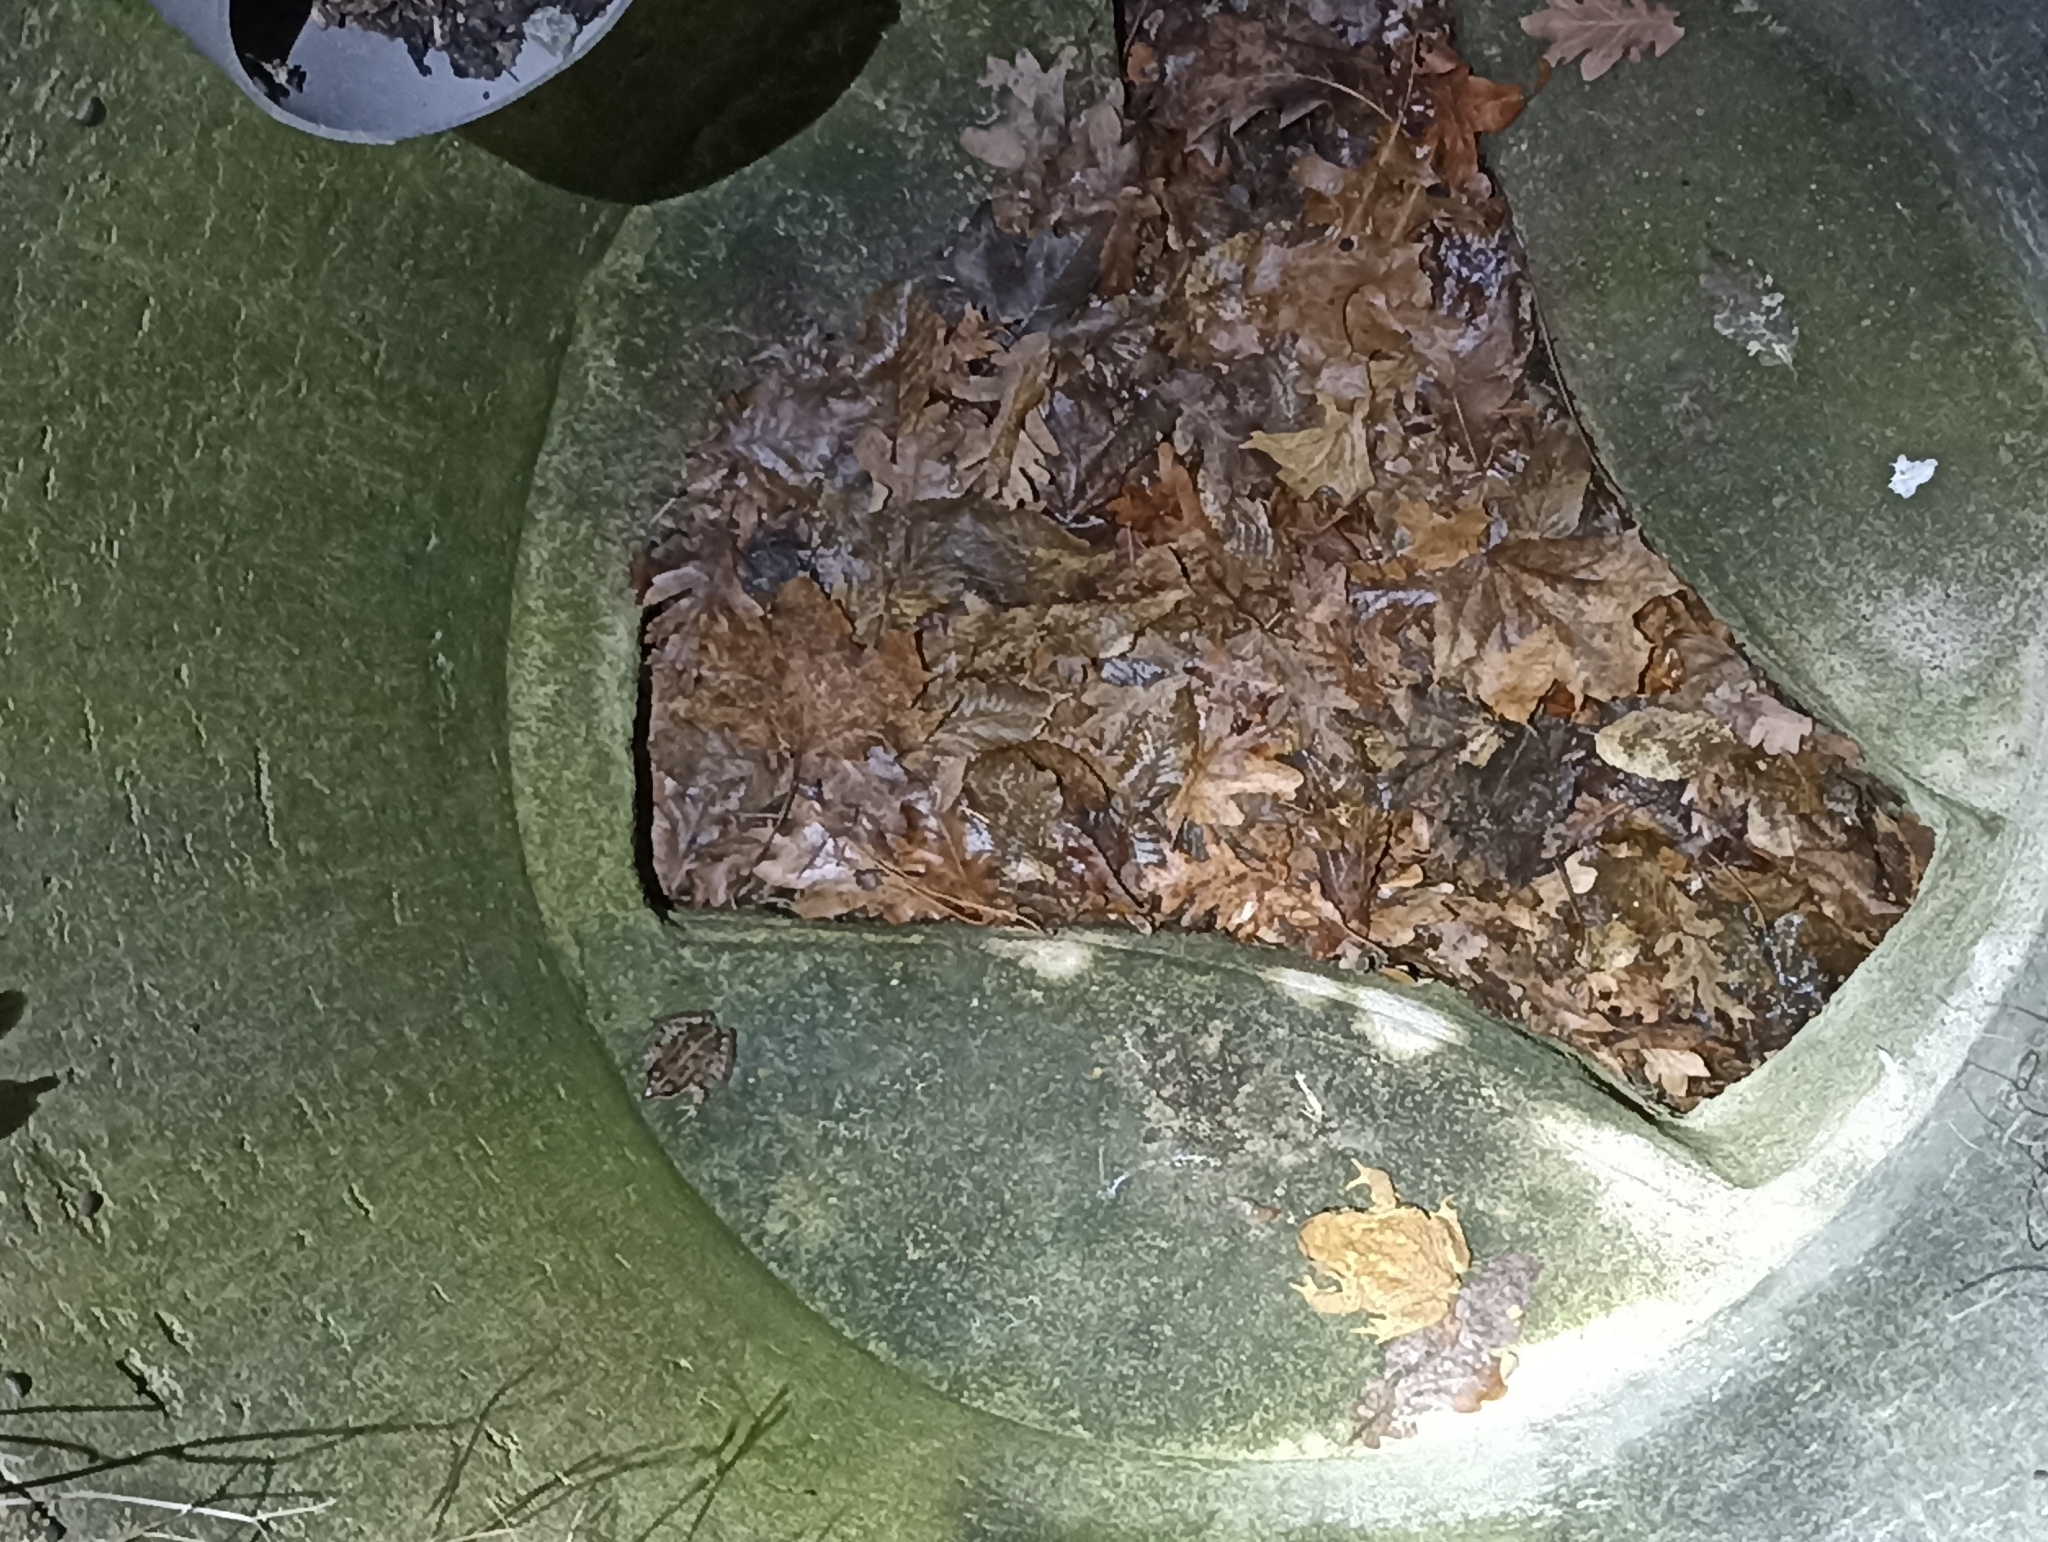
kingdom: Animalia
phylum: Chordata
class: Amphibia
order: Anura
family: Bufonidae
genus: Bufo
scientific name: Bufo spinosus
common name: Western common toad
